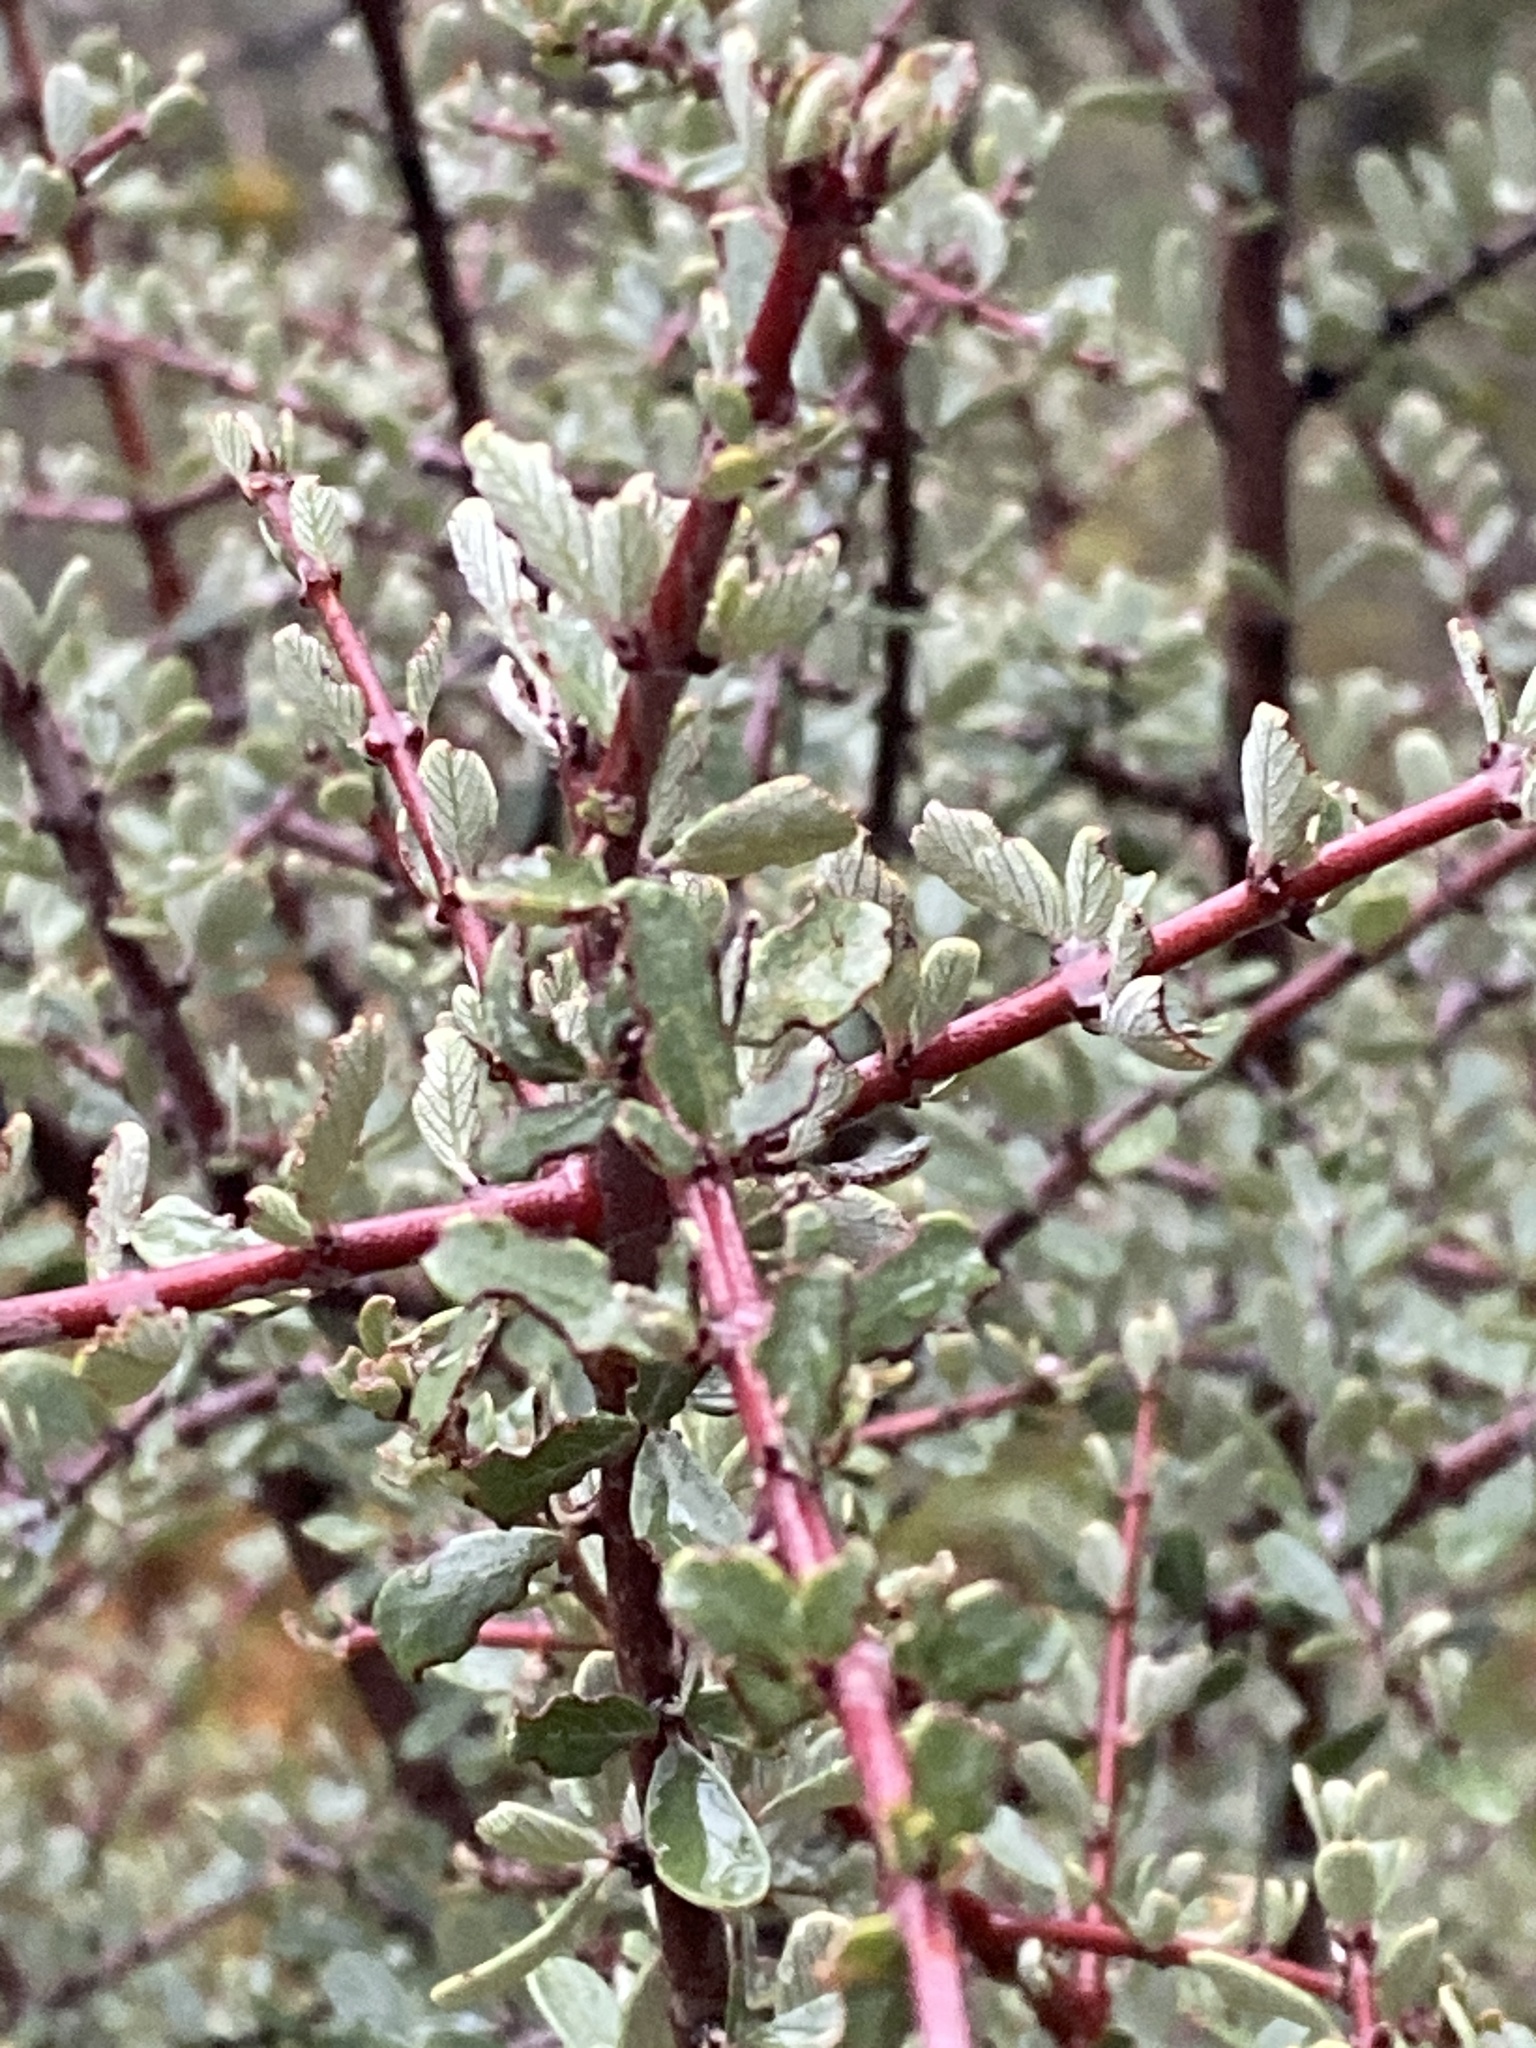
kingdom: Plantae
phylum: Tracheophyta
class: Magnoliopsida
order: Rosales
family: Rhamnaceae
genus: Ceanothus
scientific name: Ceanothus cuneatus
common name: Cuneate ceanothus
